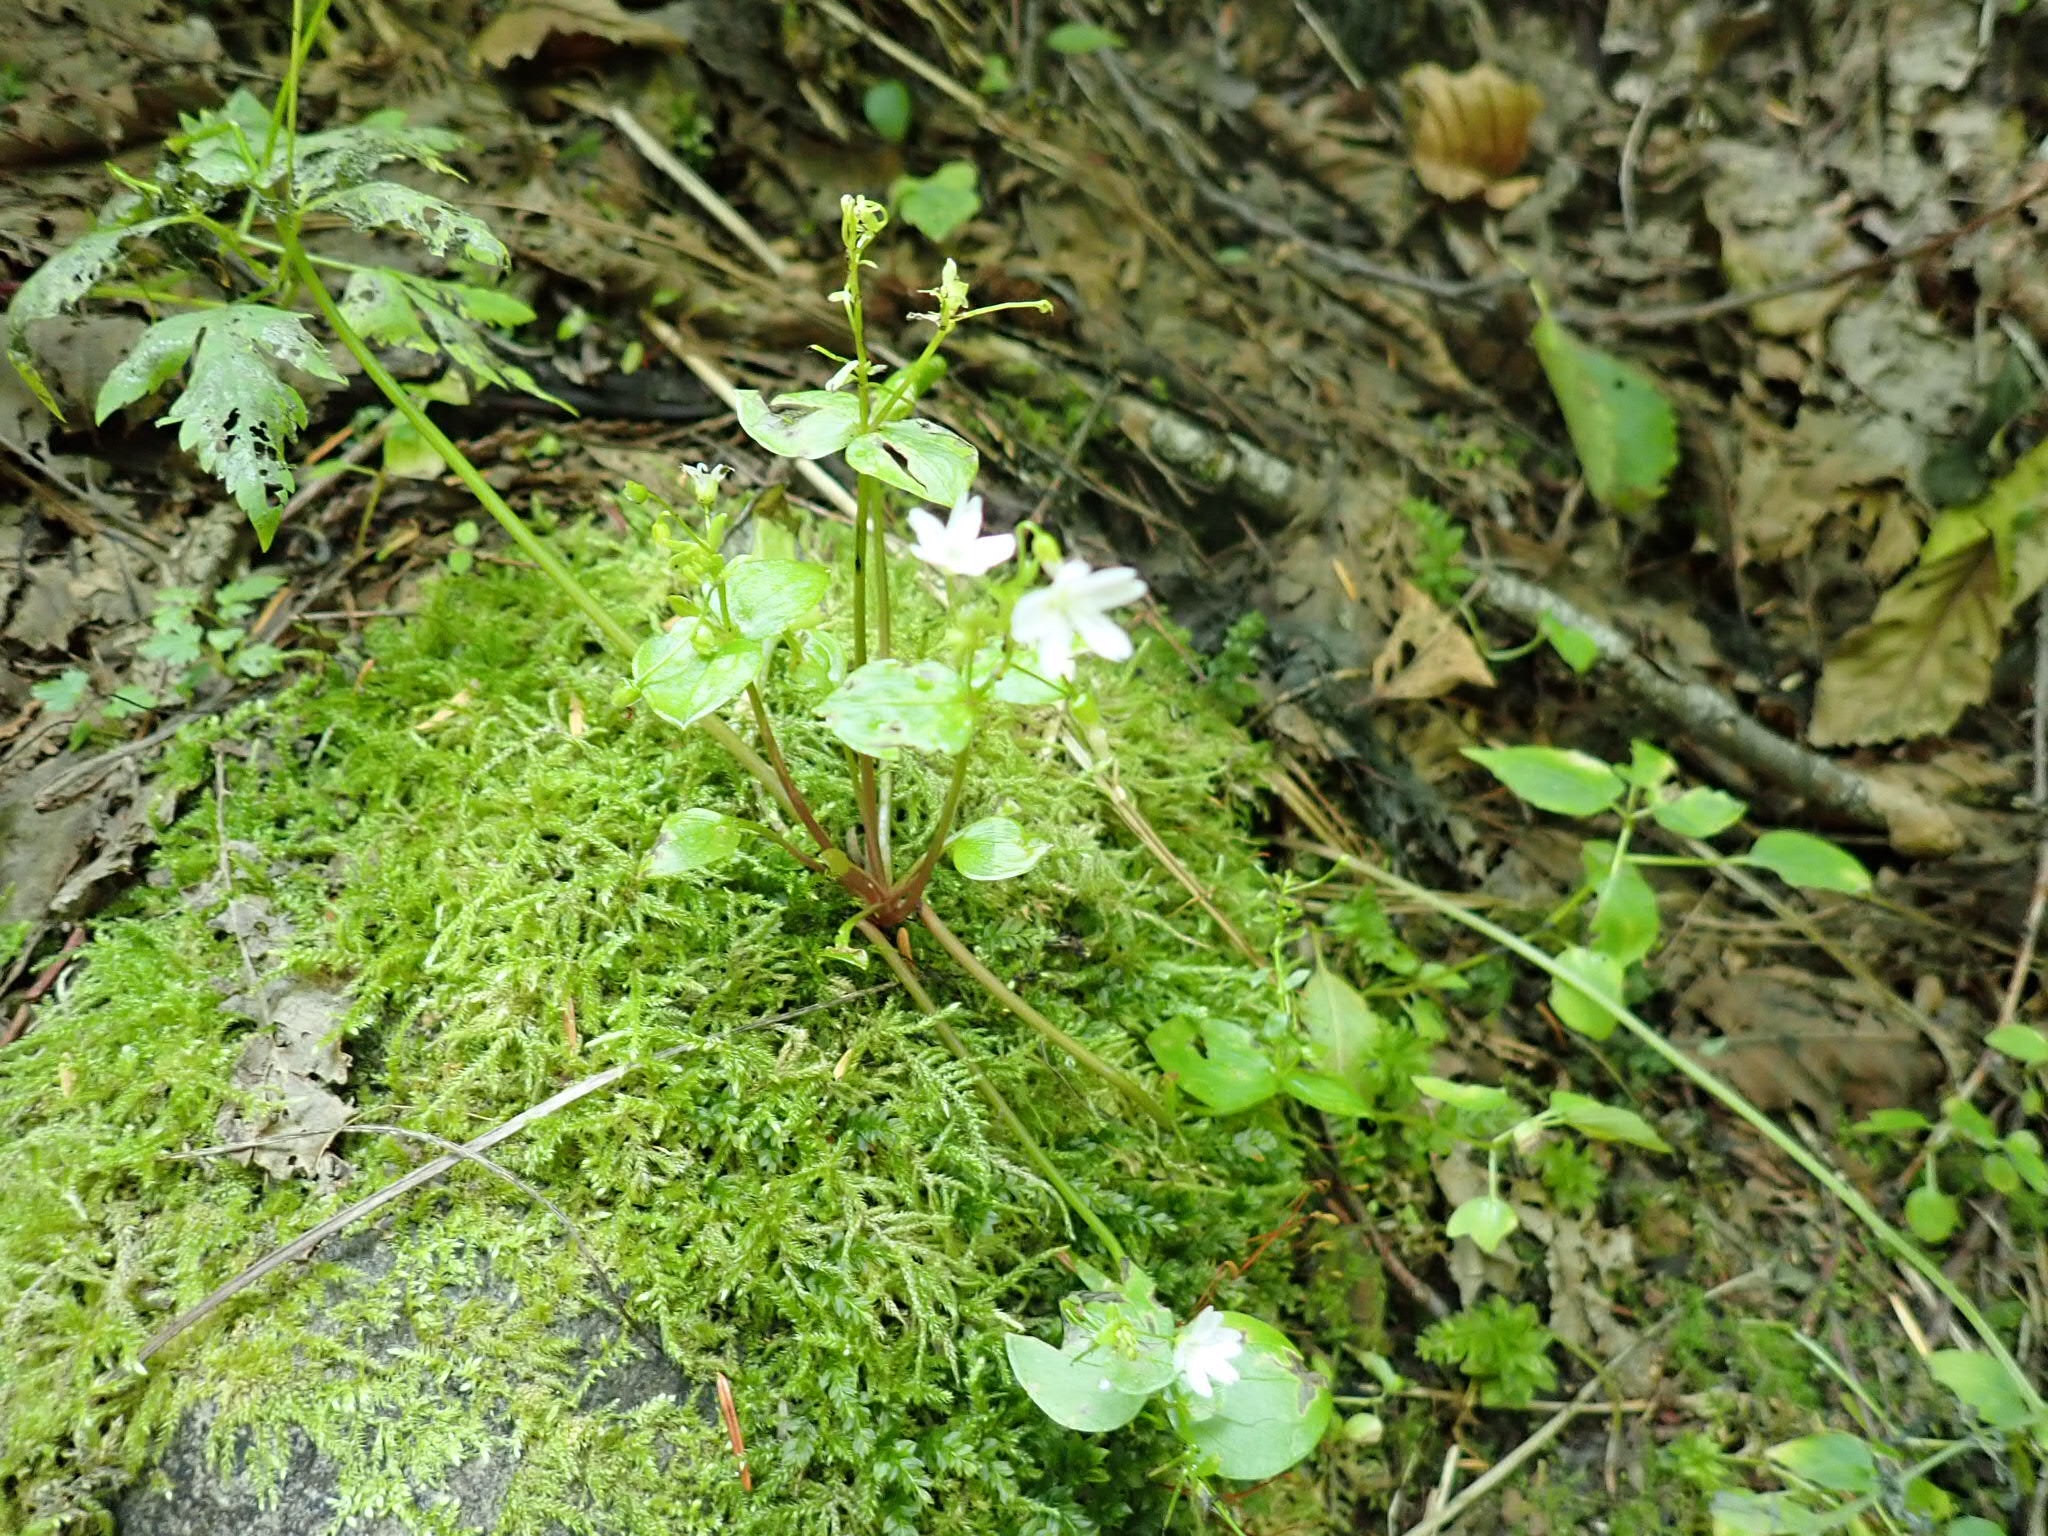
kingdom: Plantae
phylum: Tracheophyta
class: Magnoliopsida
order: Caryophyllales
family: Montiaceae
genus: Claytonia
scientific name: Claytonia sibirica
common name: Pink purslane
